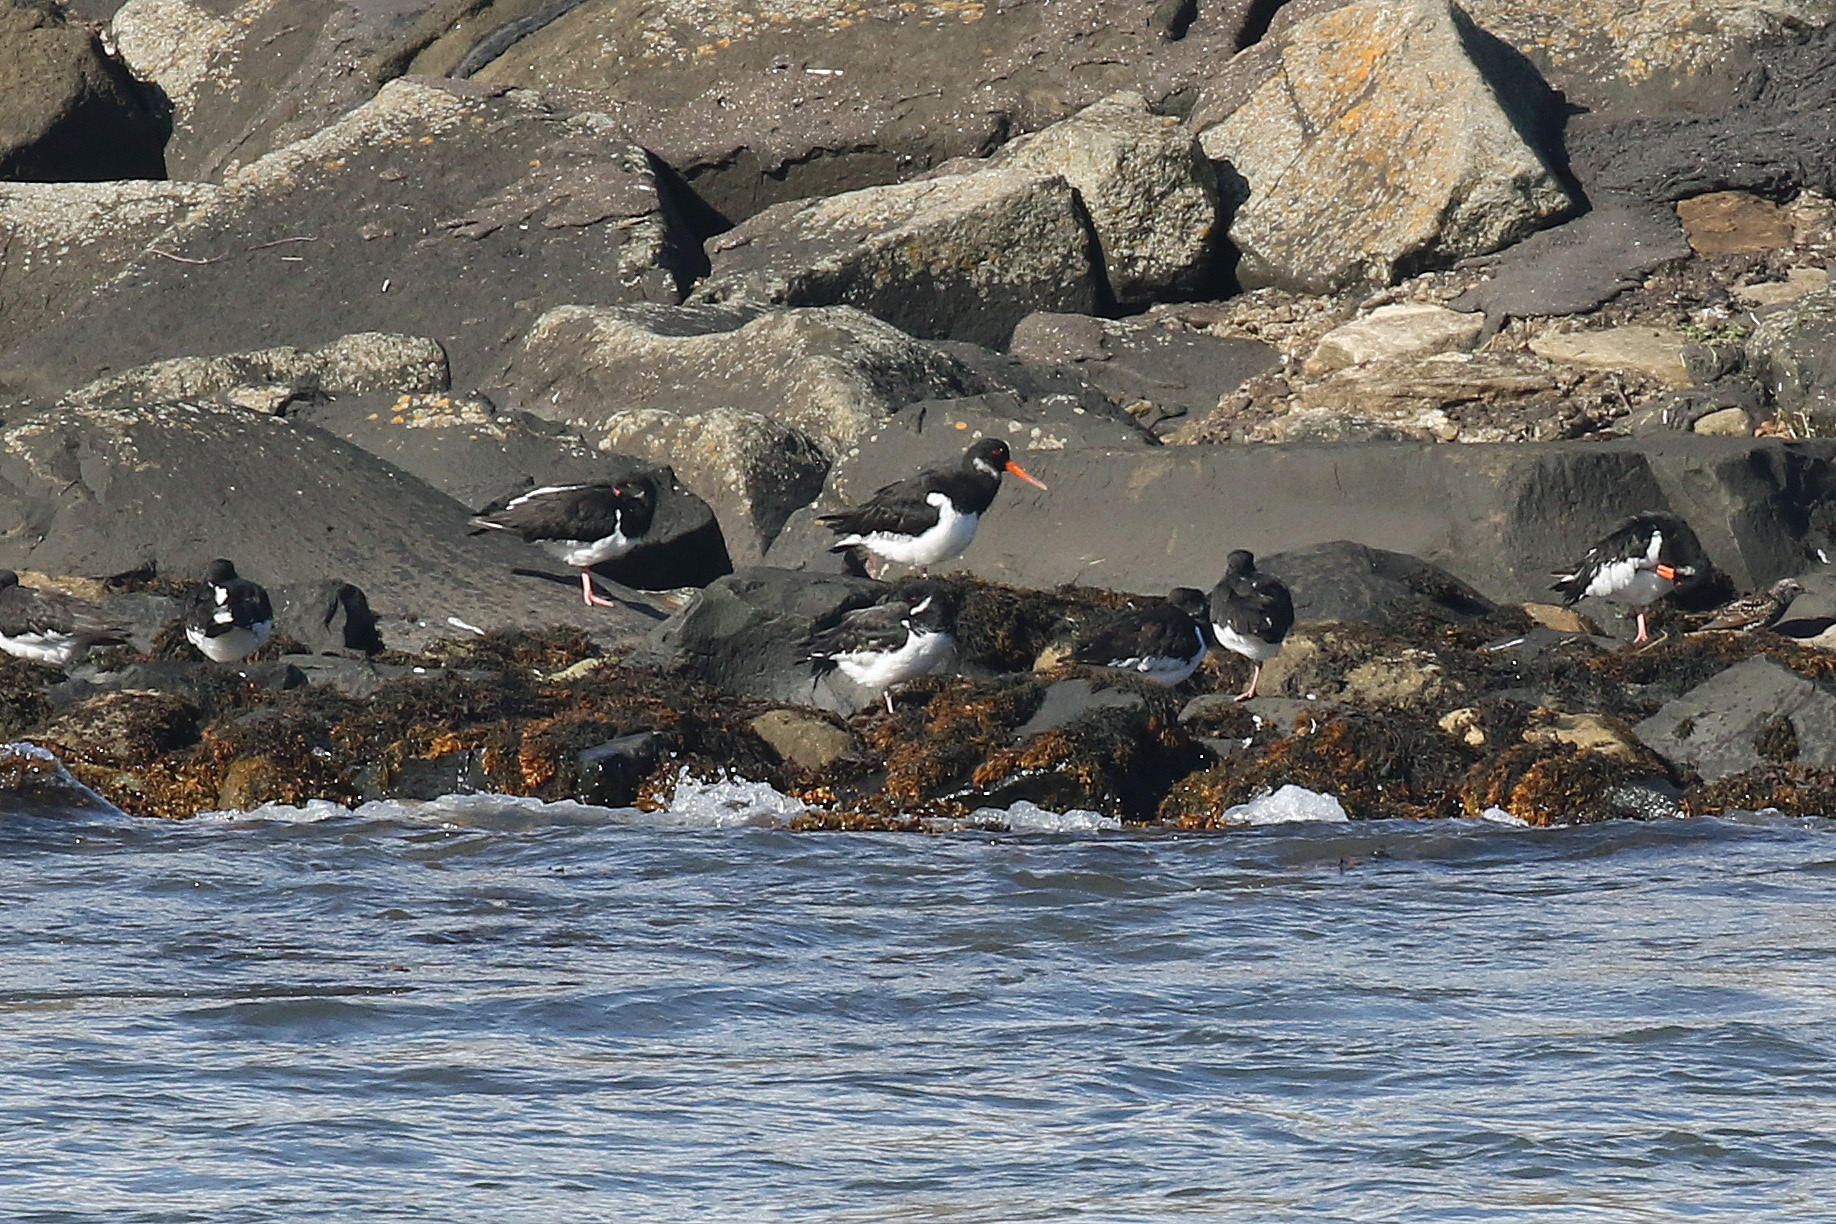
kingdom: Animalia
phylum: Chordata
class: Aves
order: Charadriiformes
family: Haematopodidae
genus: Haematopus
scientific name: Haematopus ostralegus
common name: Eurasian oystercatcher
